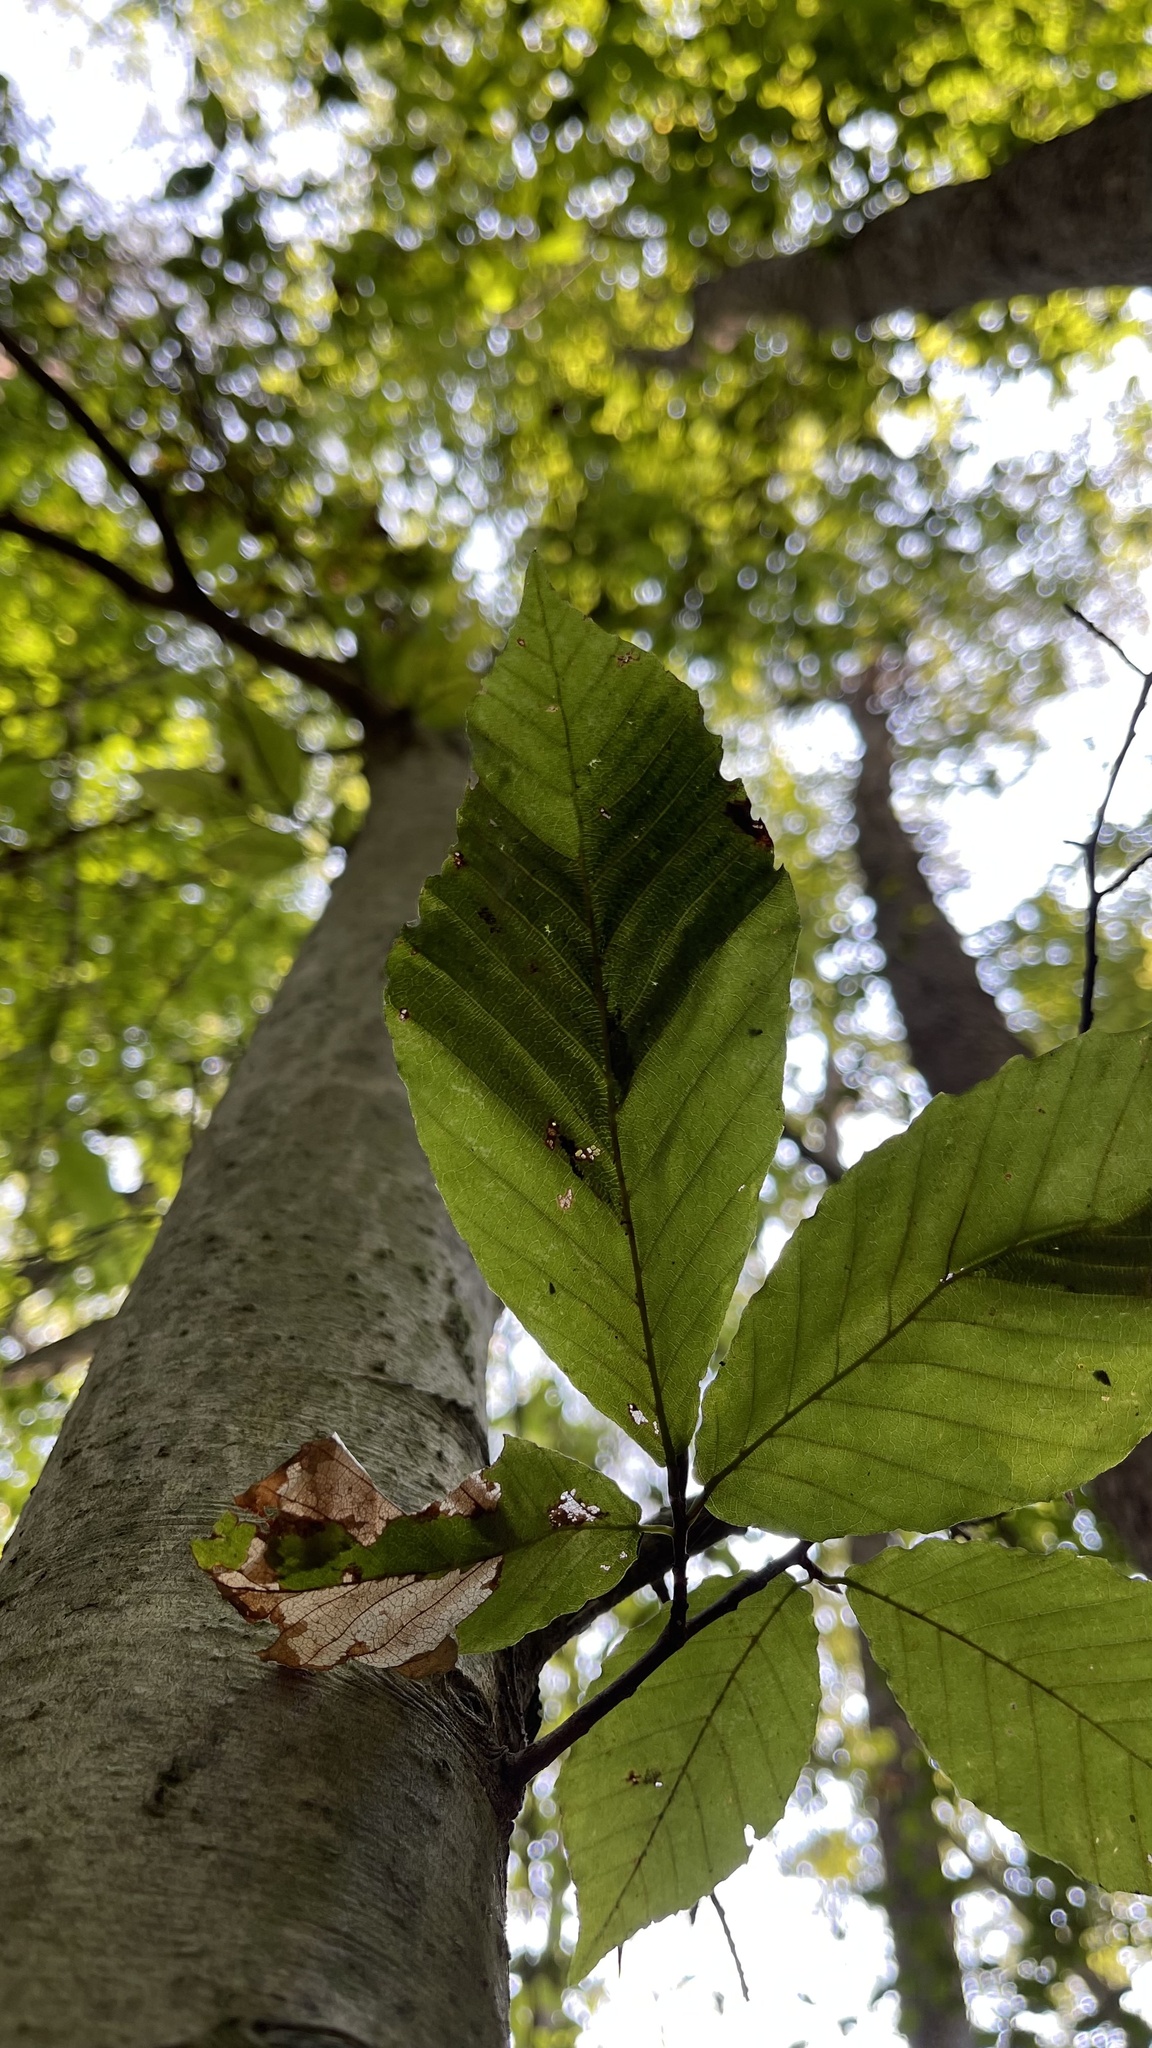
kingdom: Animalia
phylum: Nematoda
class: Chromadorea
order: Rhabditida
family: Anguinidae
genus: Litylenchus
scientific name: Litylenchus crenatae
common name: Beech leaf disease
